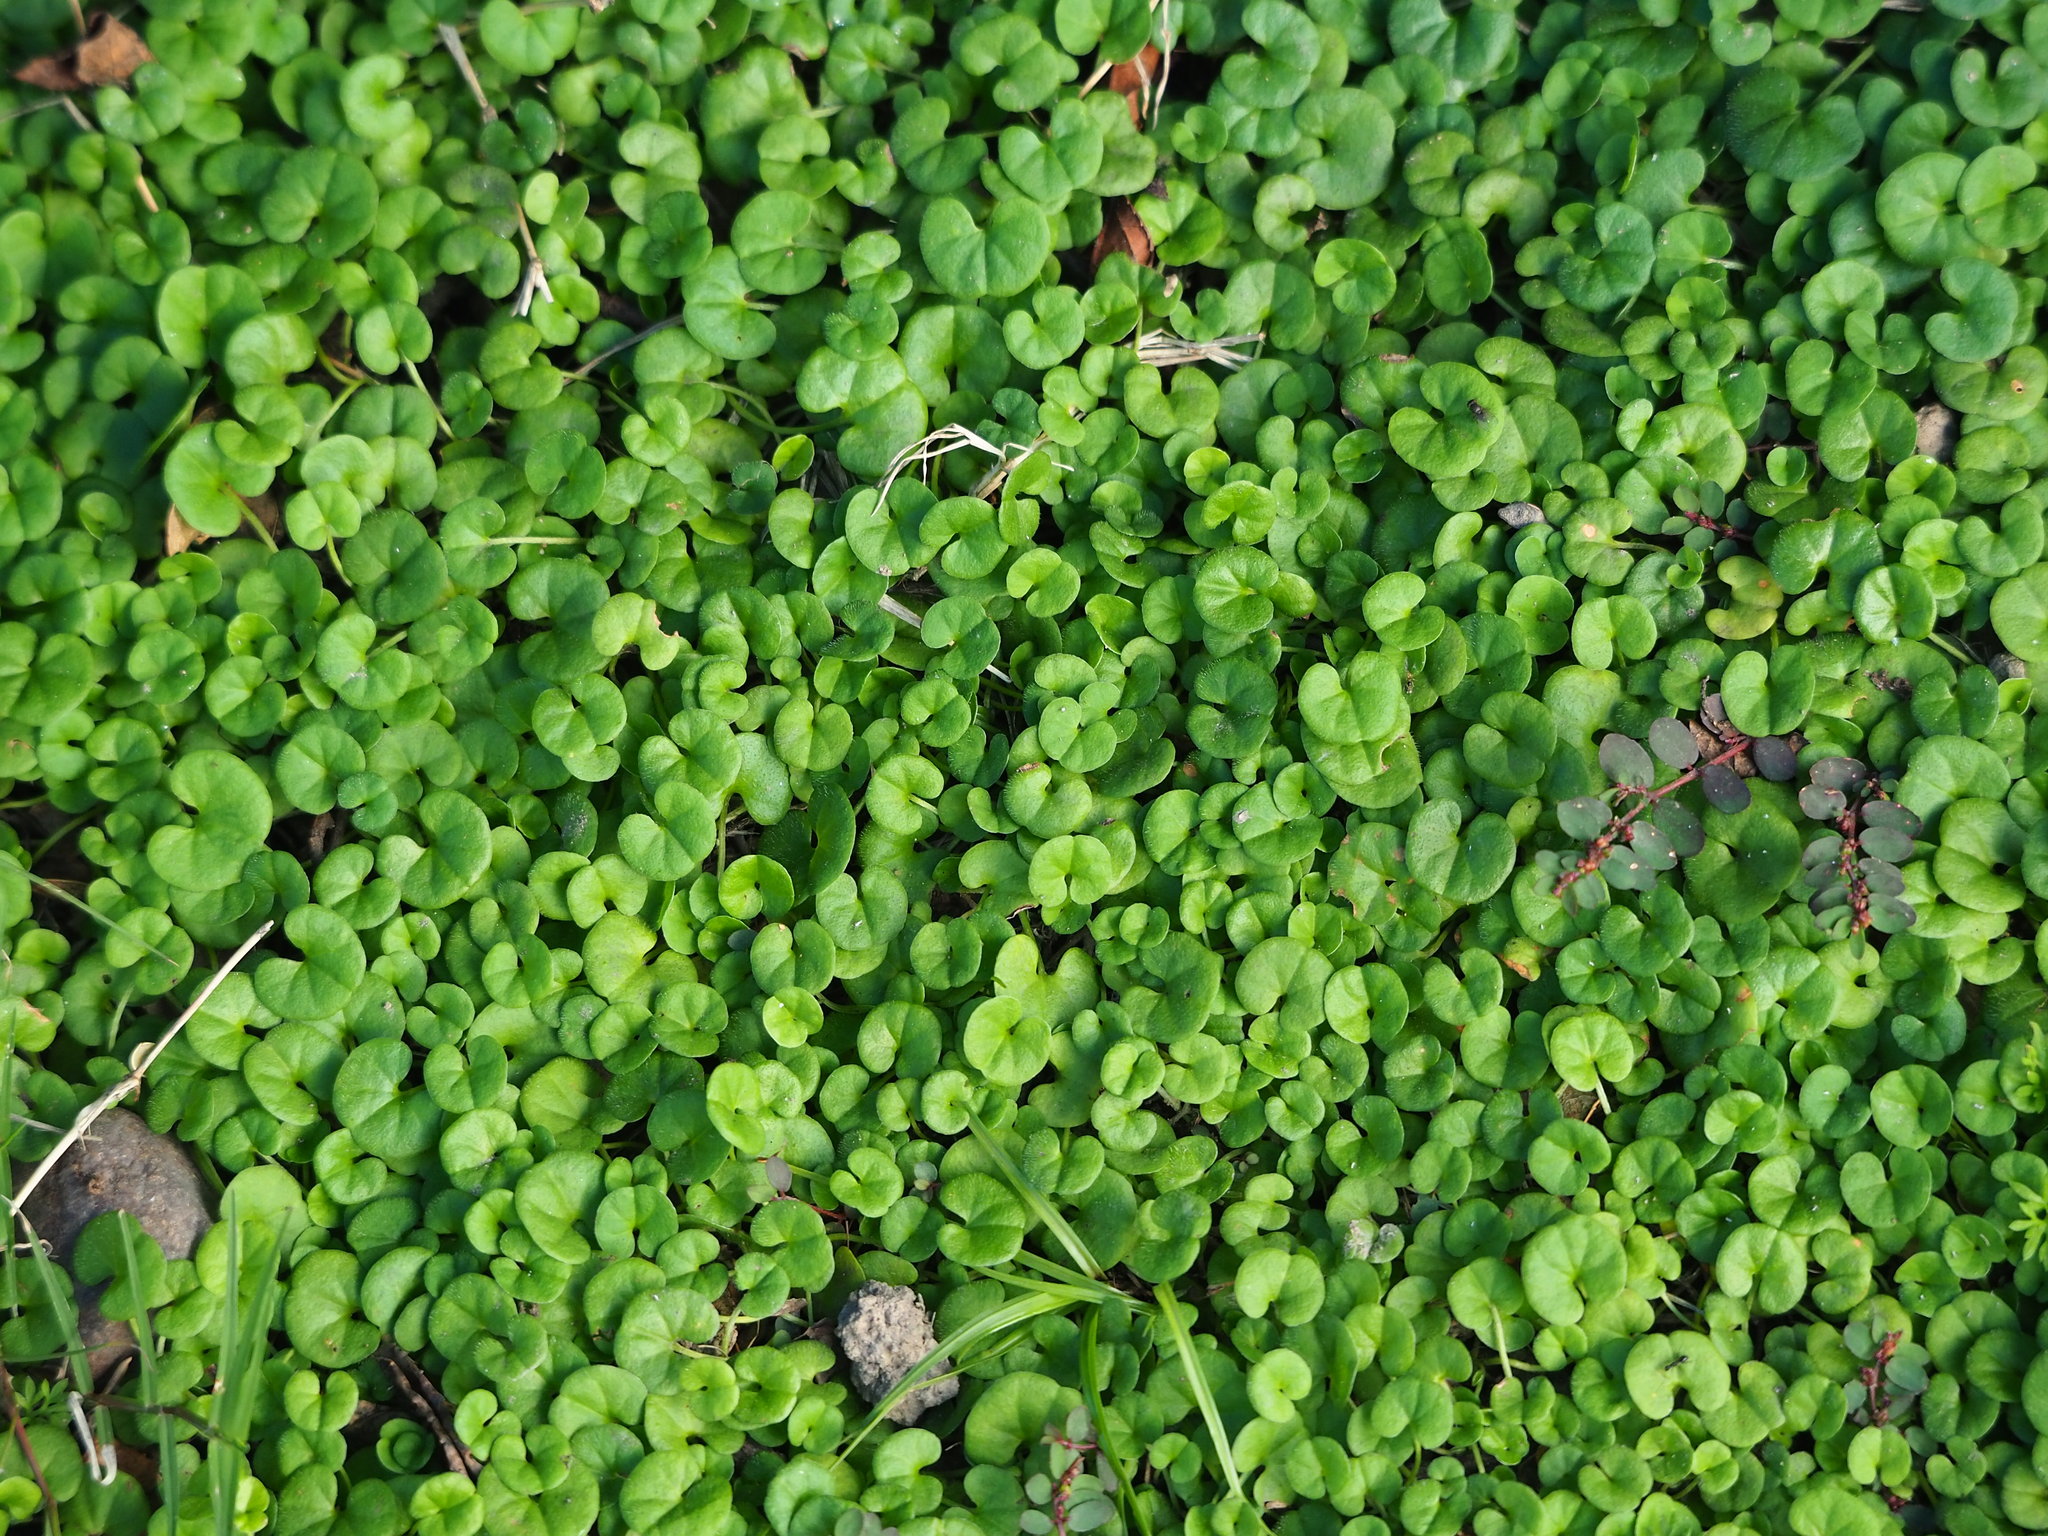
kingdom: Plantae
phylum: Tracheophyta
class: Magnoliopsida
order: Solanales
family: Convolvulaceae
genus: Dichondra
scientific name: Dichondra micrantha
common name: Kidneyweed
